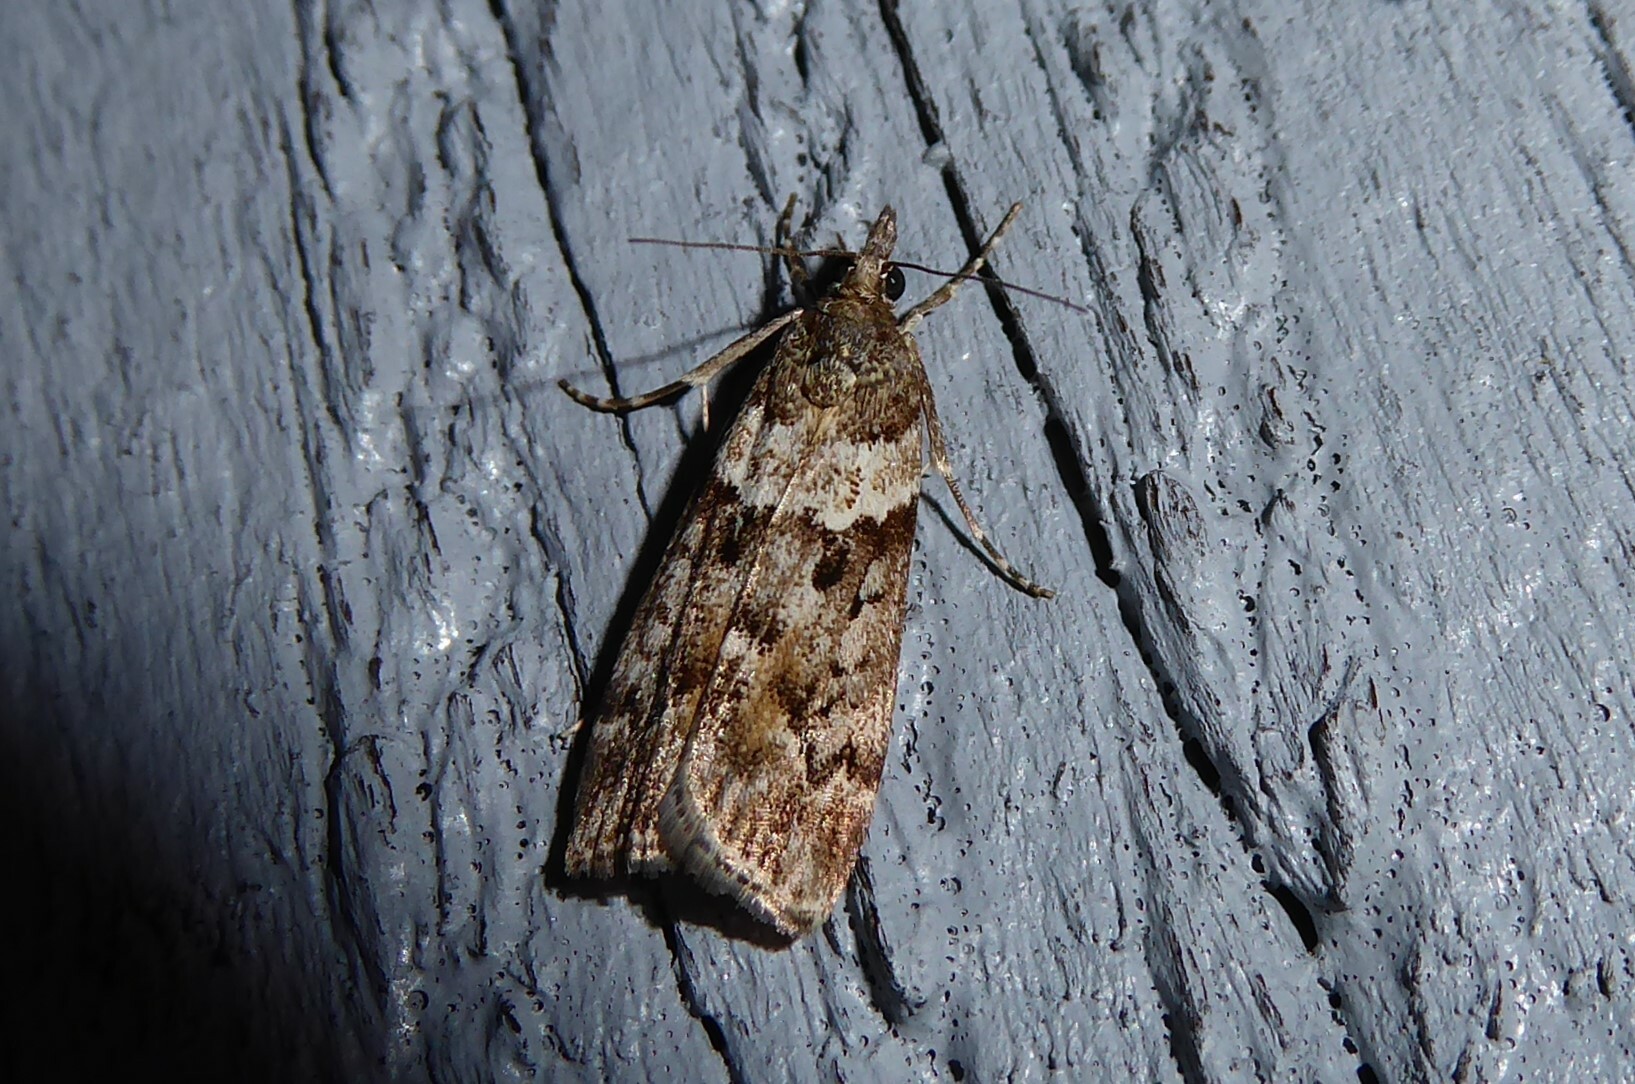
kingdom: Animalia
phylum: Arthropoda
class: Insecta
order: Lepidoptera
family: Crambidae
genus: Eudonia
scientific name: Eudonia submarginalis
